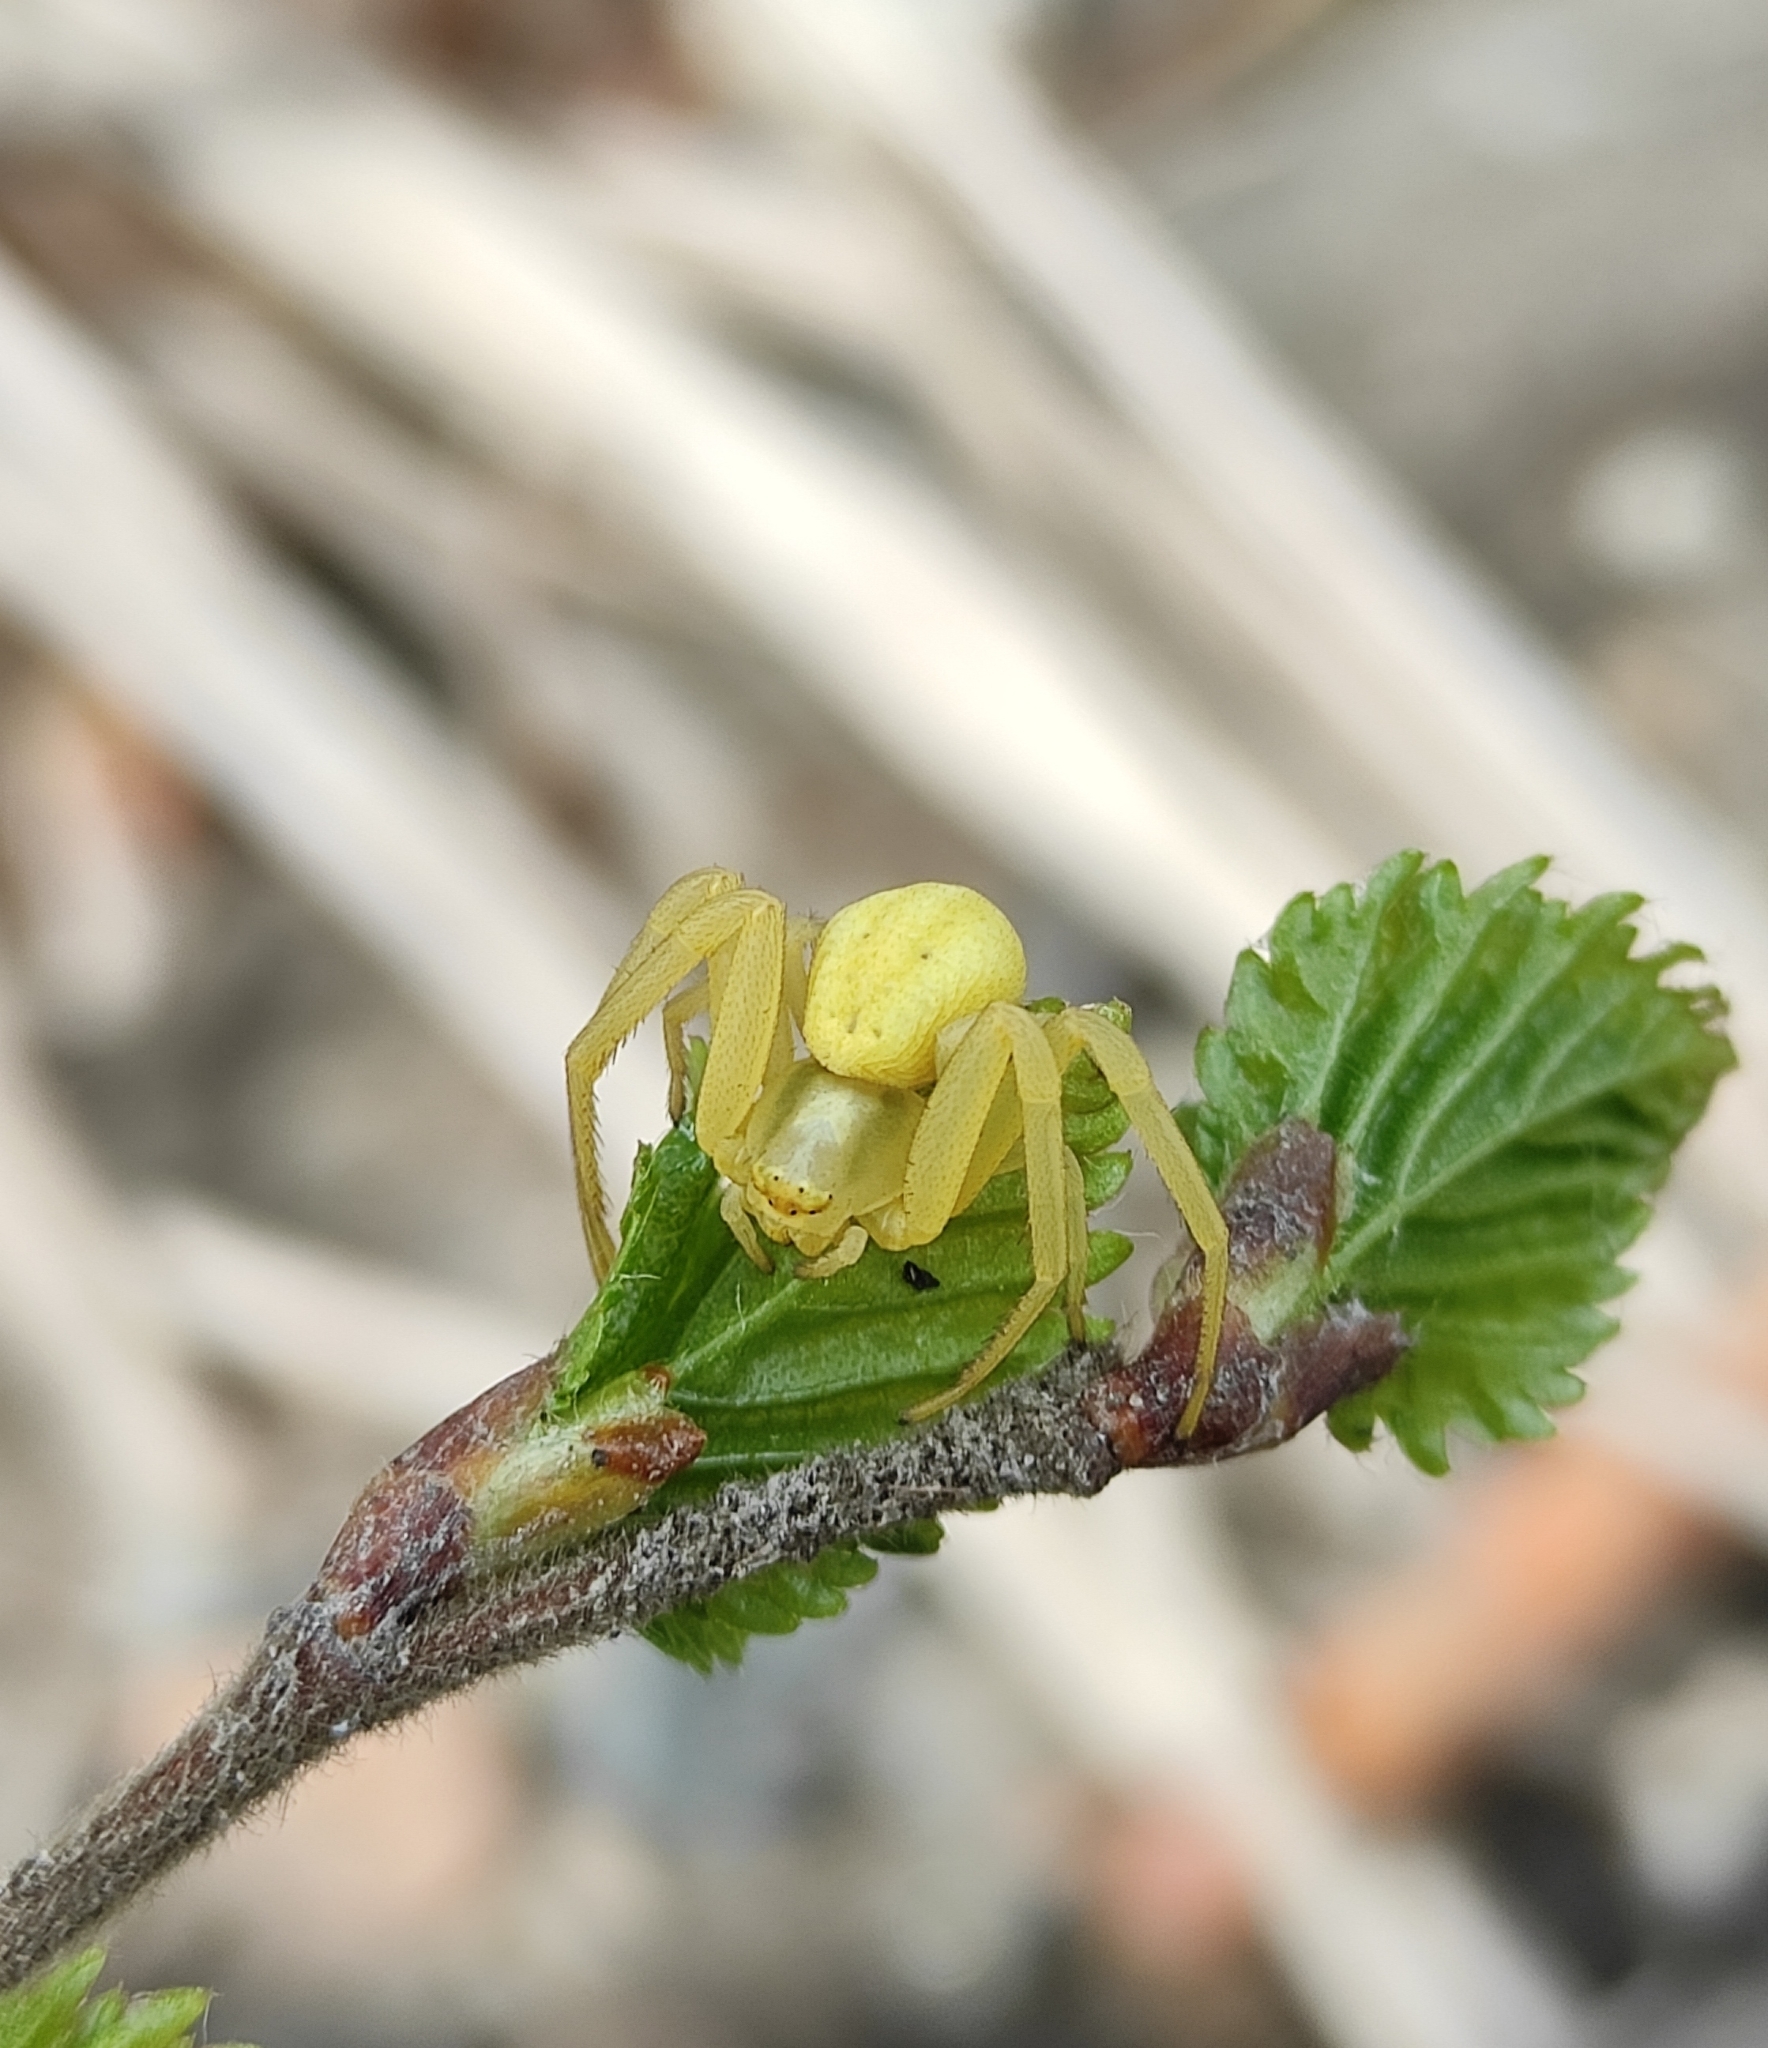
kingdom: Animalia
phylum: Arthropoda
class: Arachnida
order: Araneae
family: Thomisidae
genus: Misumena
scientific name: Misumena vatia
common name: Goldenrod crab spider
